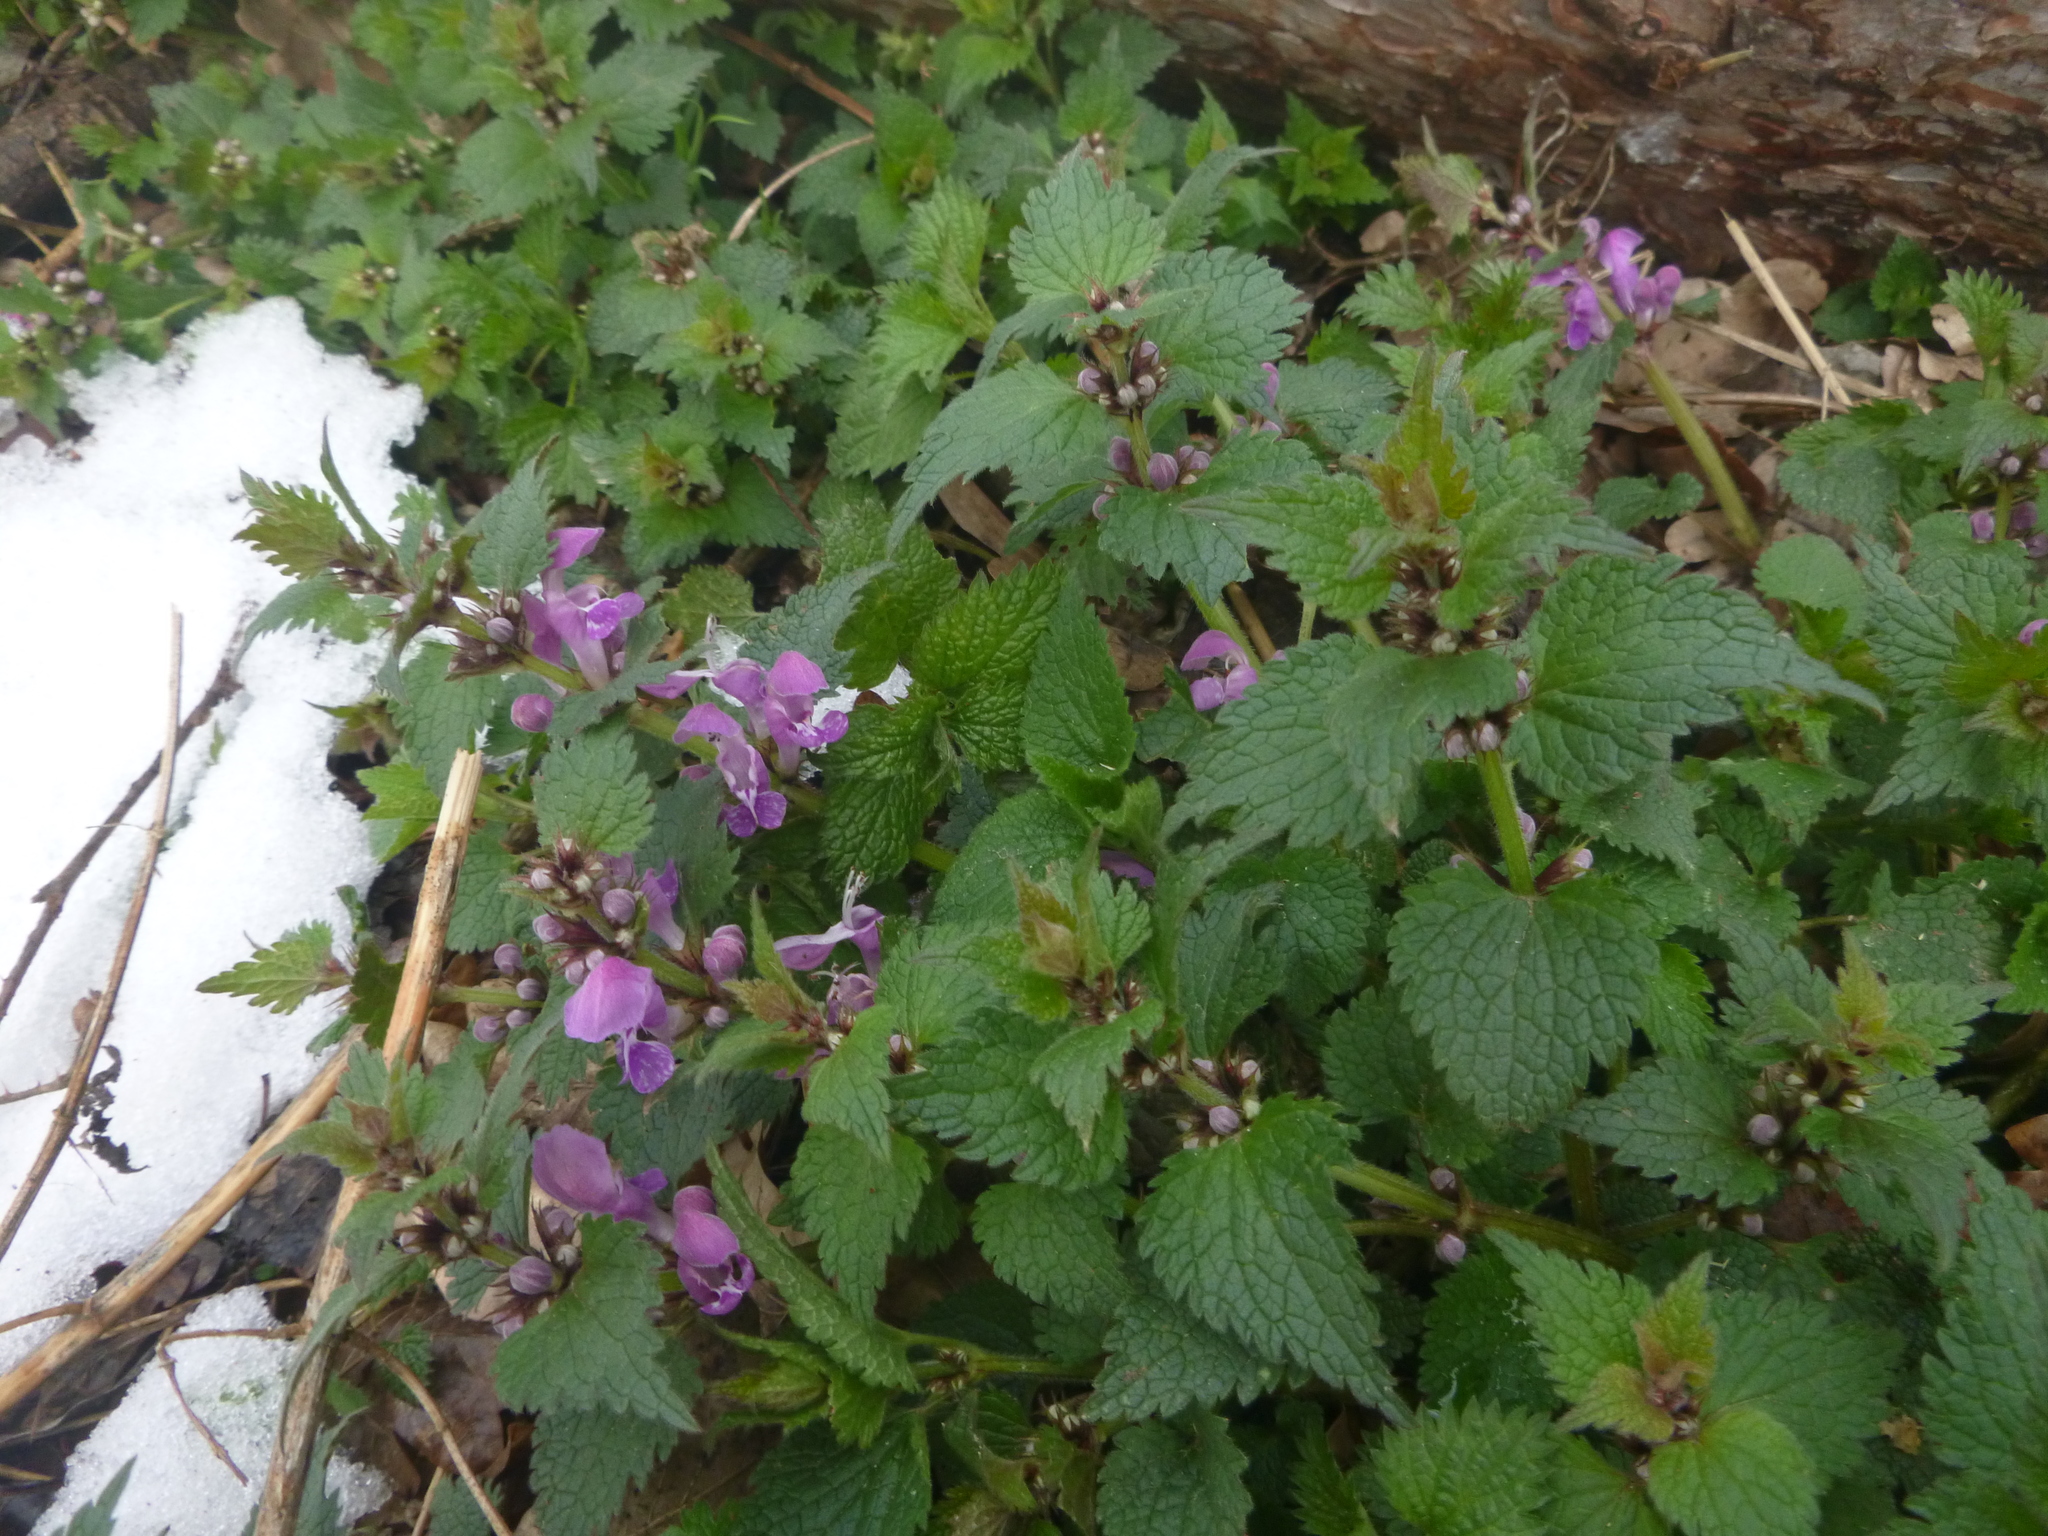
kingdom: Plantae
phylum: Tracheophyta
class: Magnoliopsida
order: Lamiales
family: Lamiaceae
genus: Lamium
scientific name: Lamium maculatum
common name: Spotted dead-nettle
